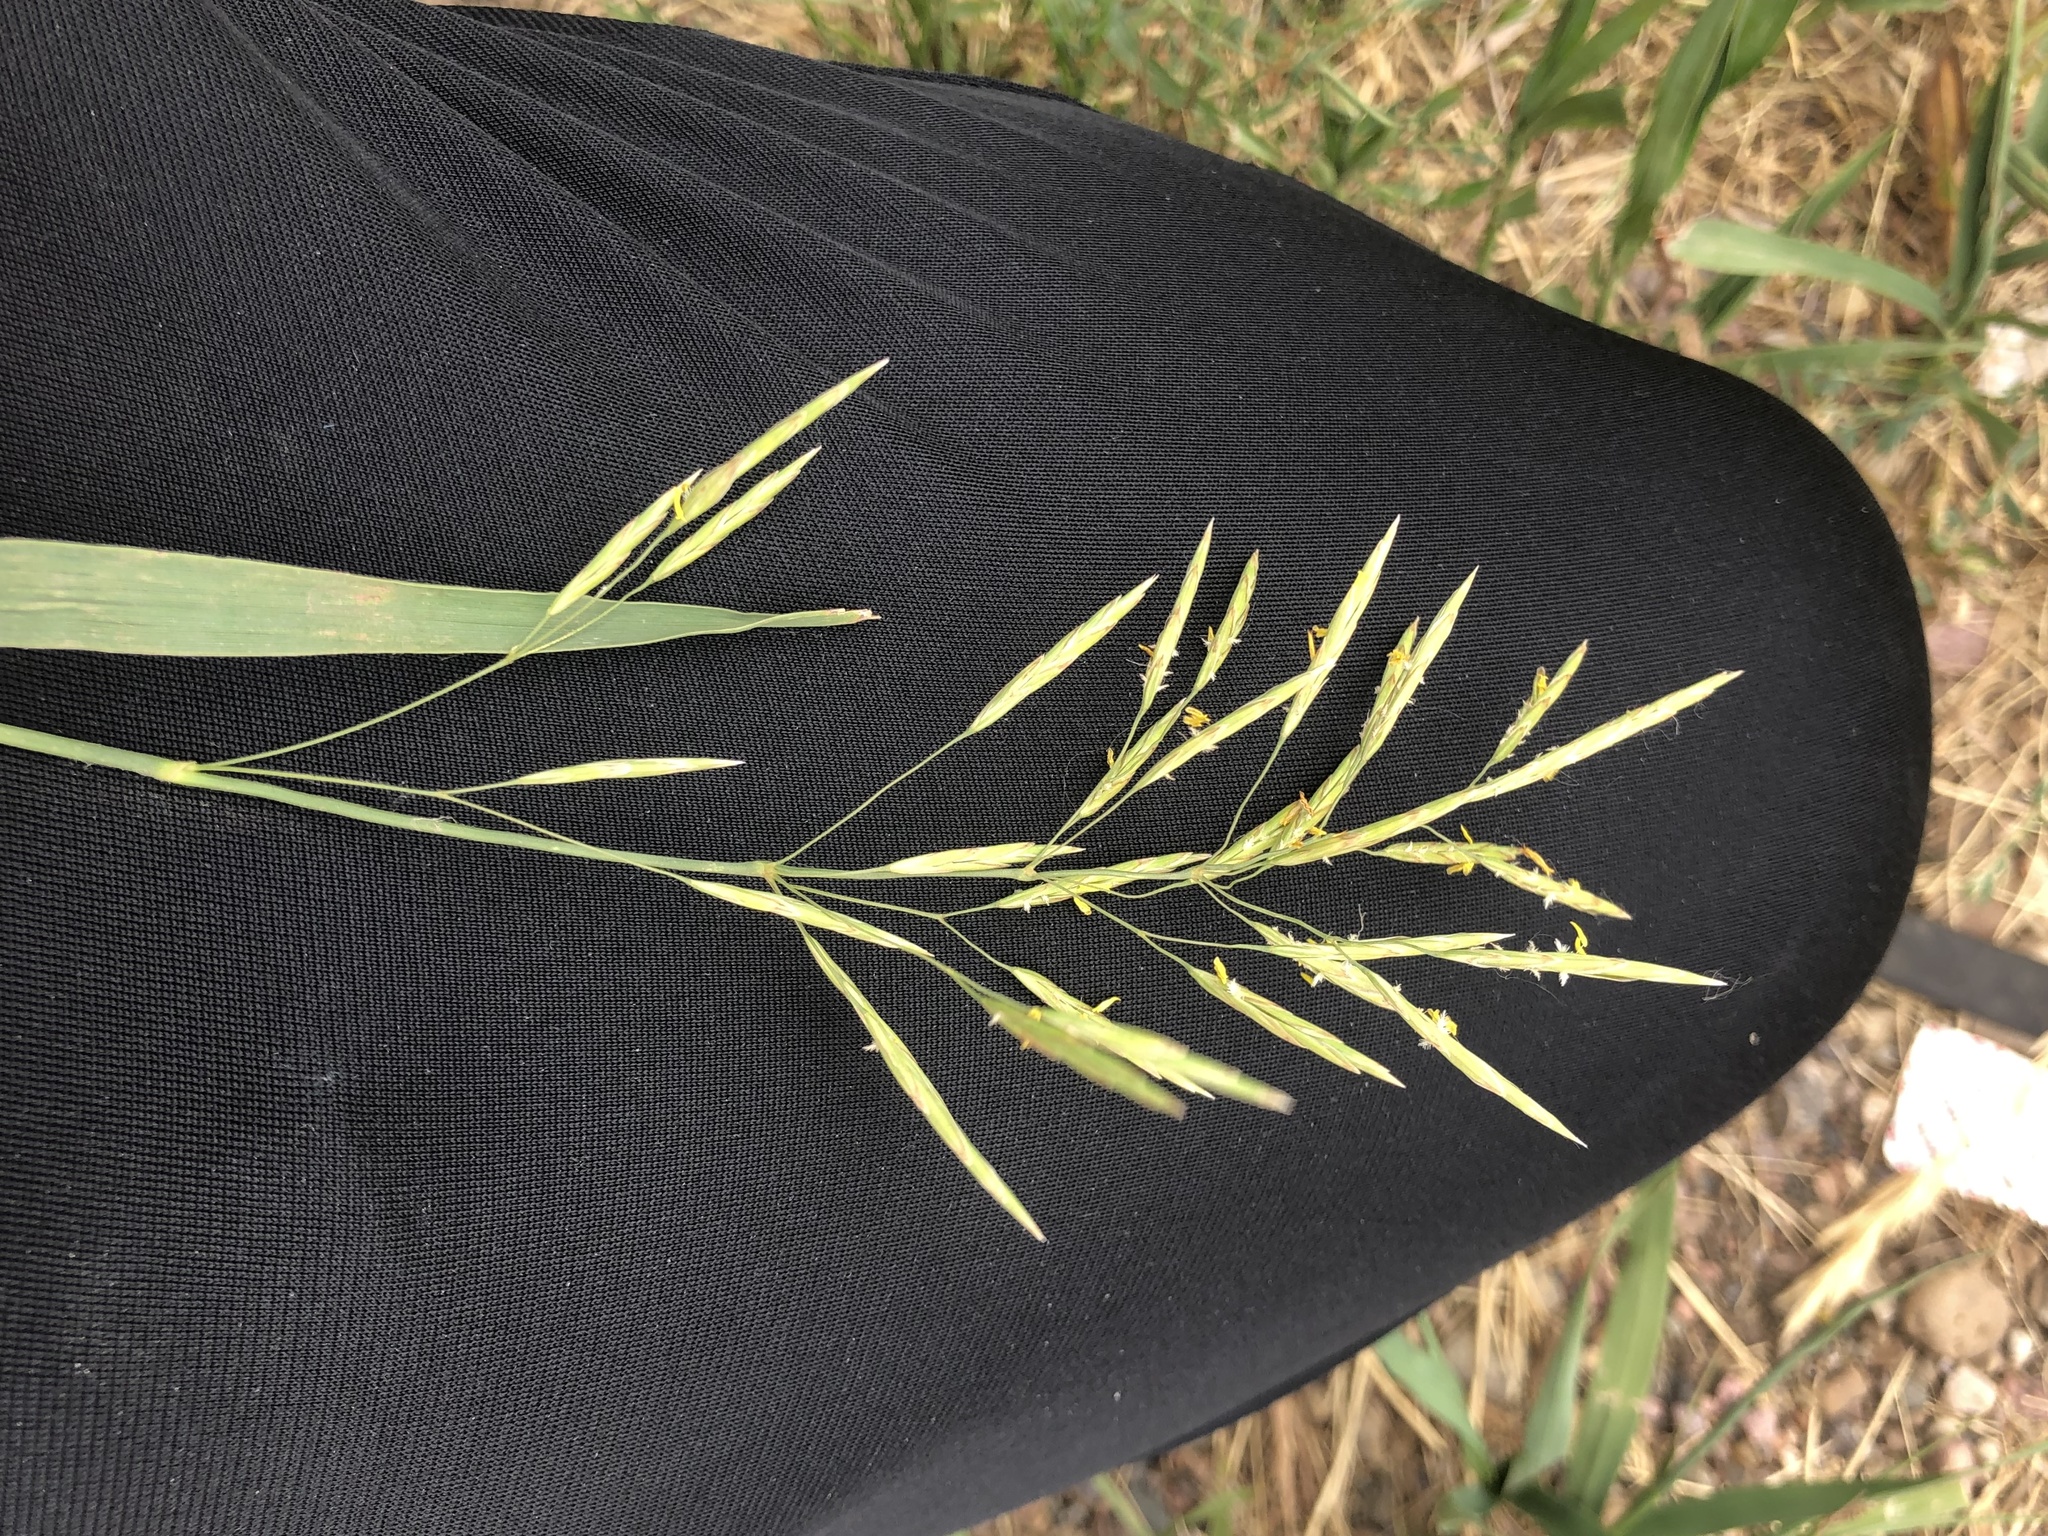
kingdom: Plantae
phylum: Tracheophyta
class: Liliopsida
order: Poales
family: Poaceae
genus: Bromus
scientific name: Bromus inermis
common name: Smooth brome
